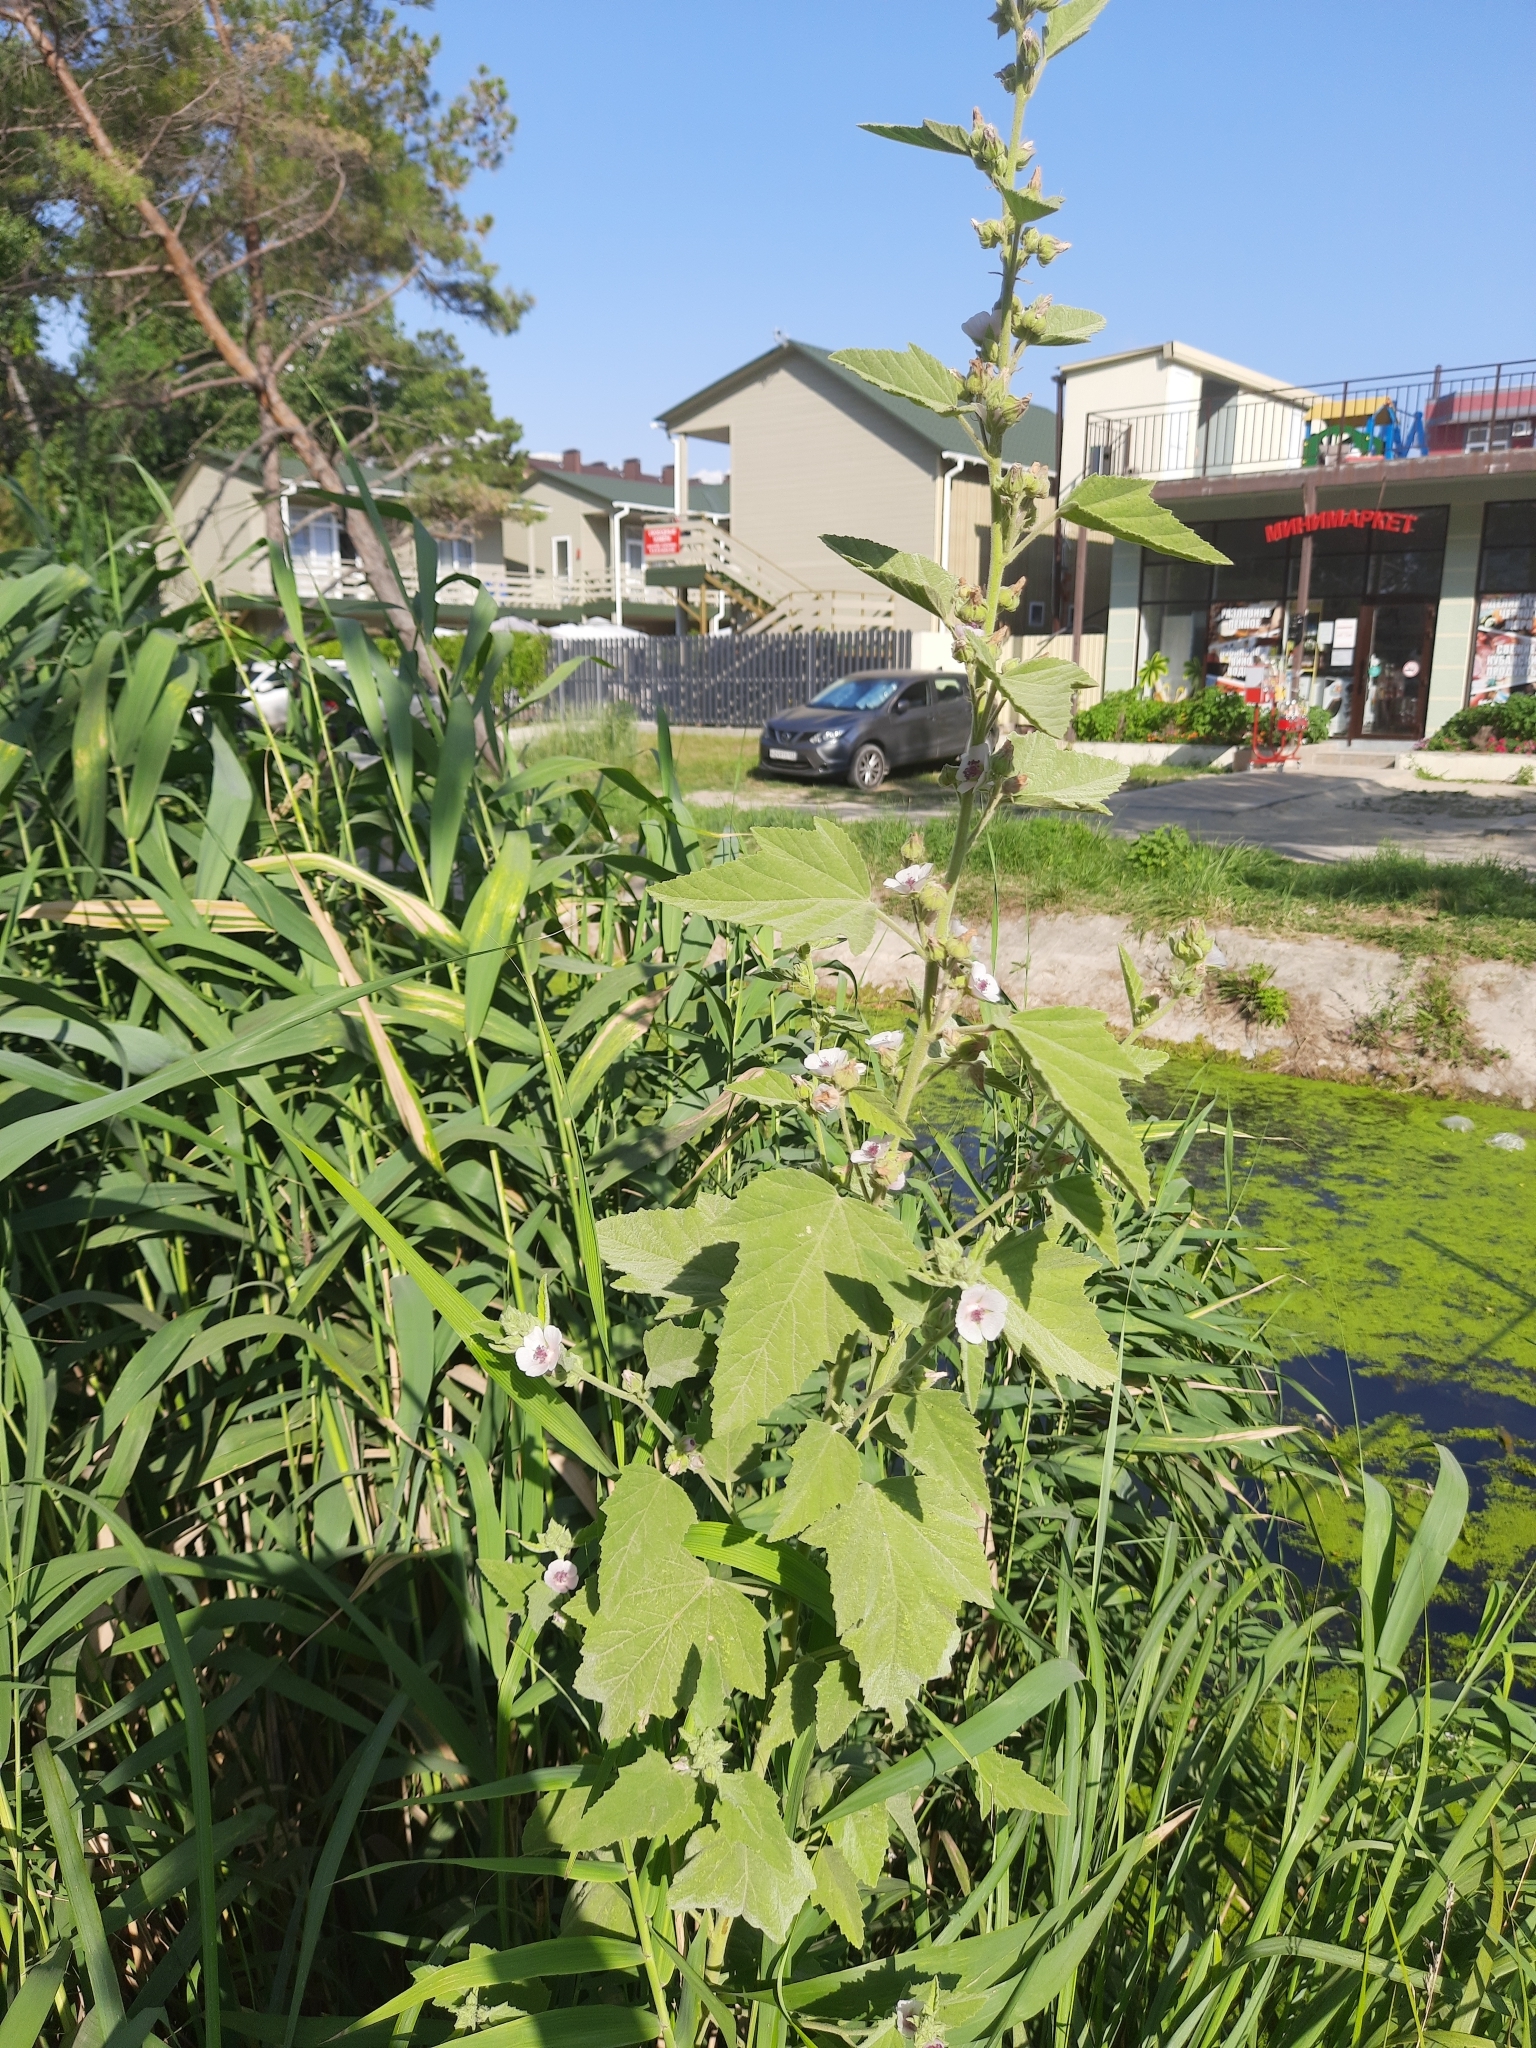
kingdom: Plantae
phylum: Tracheophyta
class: Magnoliopsida
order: Malvales
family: Malvaceae
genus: Althaea
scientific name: Althaea officinalis
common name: Marsh-mallow
